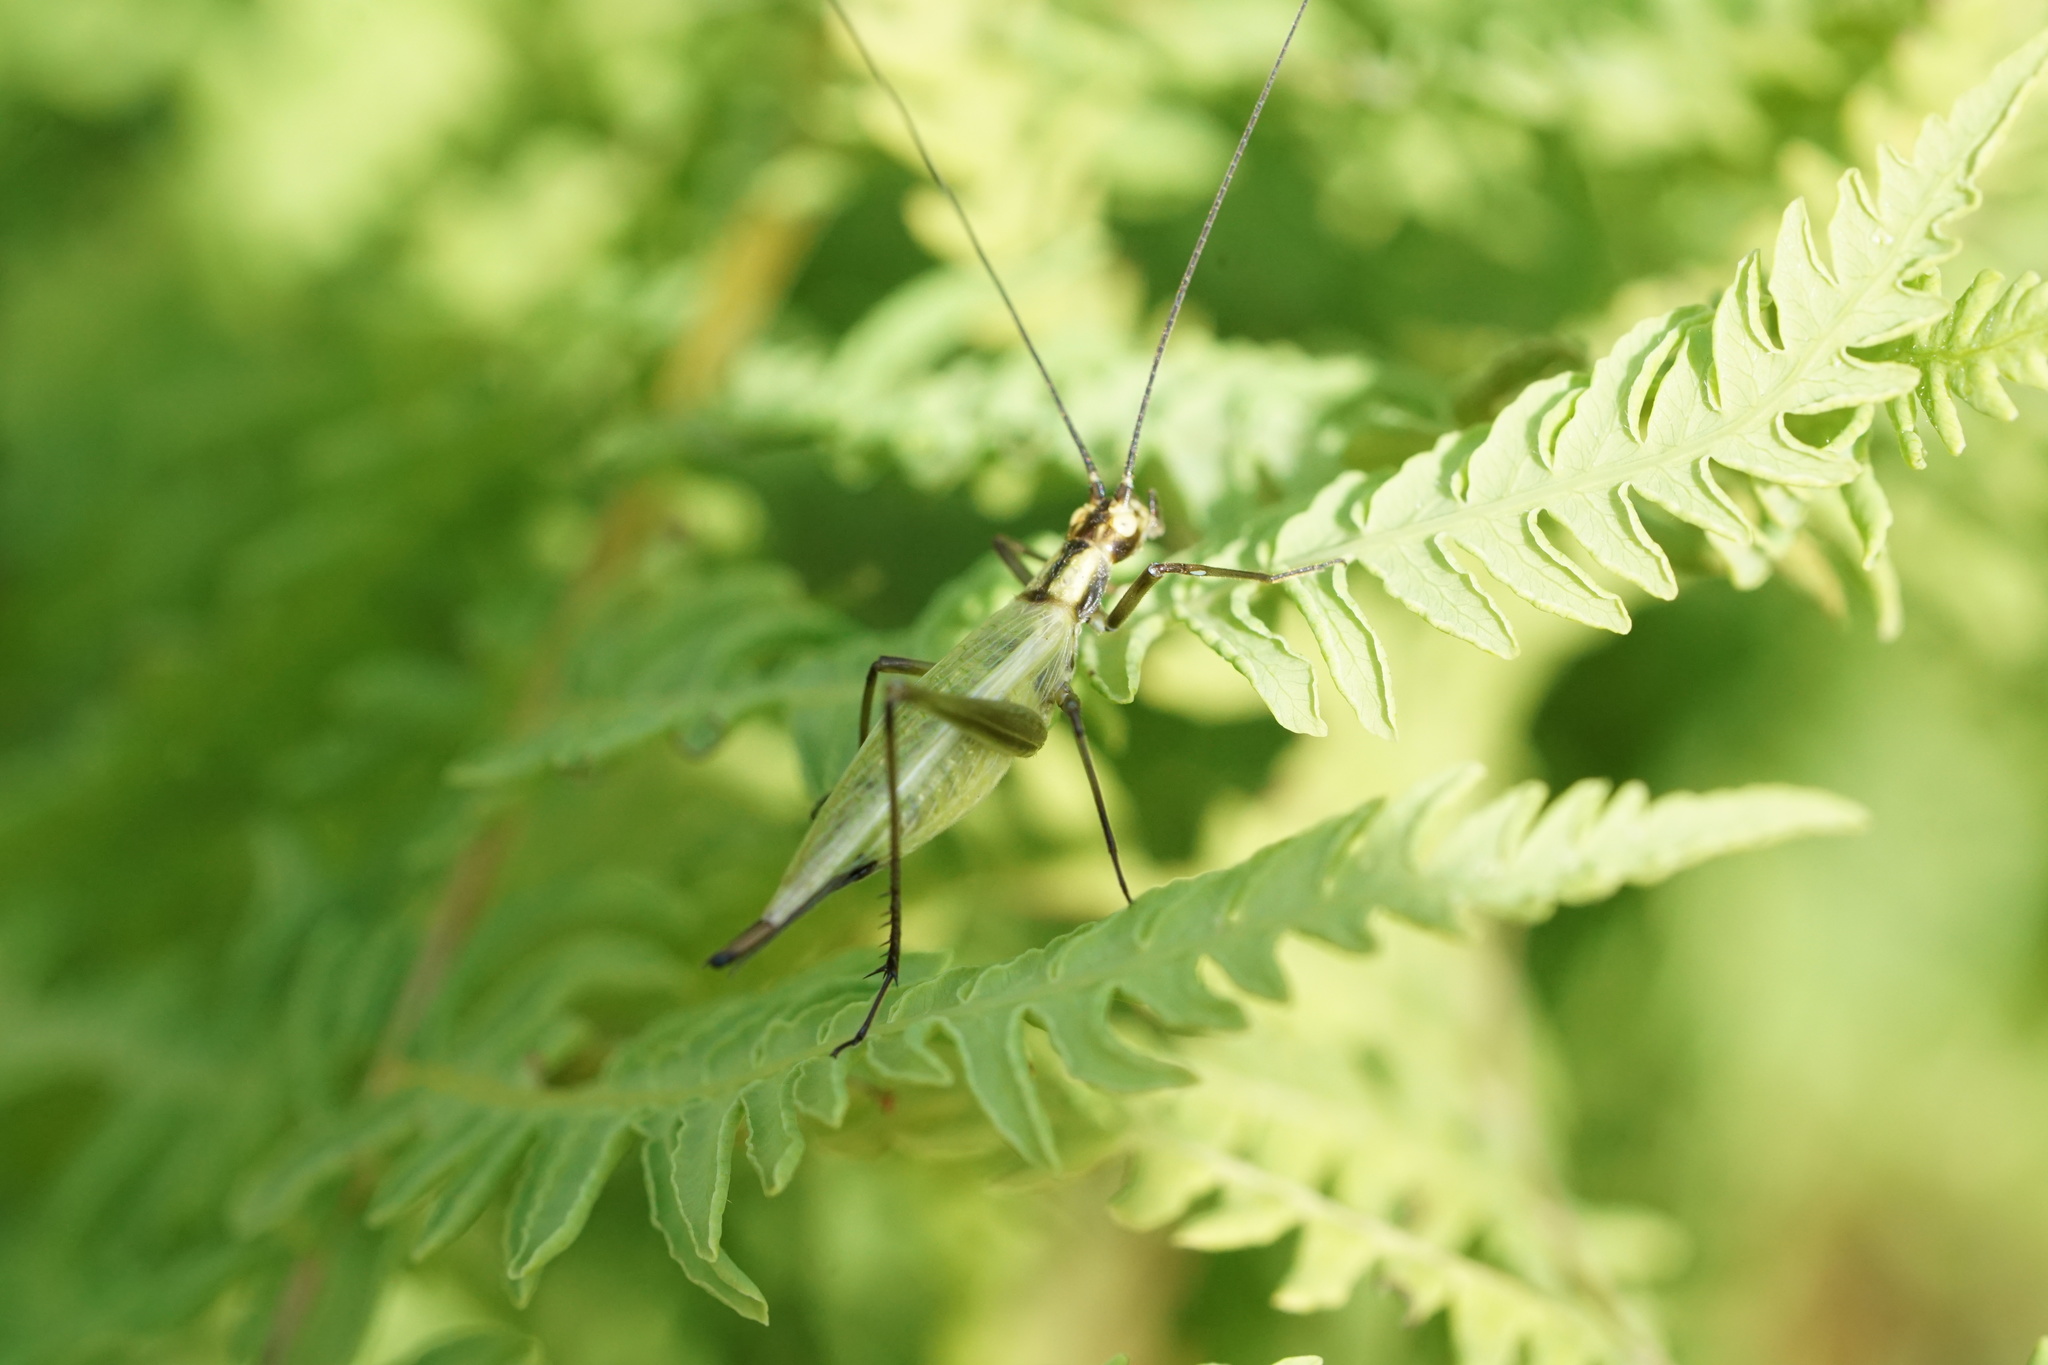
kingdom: Animalia
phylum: Arthropoda
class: Insecta
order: Orthoptera
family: Gryllidae
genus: Oecanthus
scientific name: Oecanthus nigricornis
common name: Black-horned tree cricket
